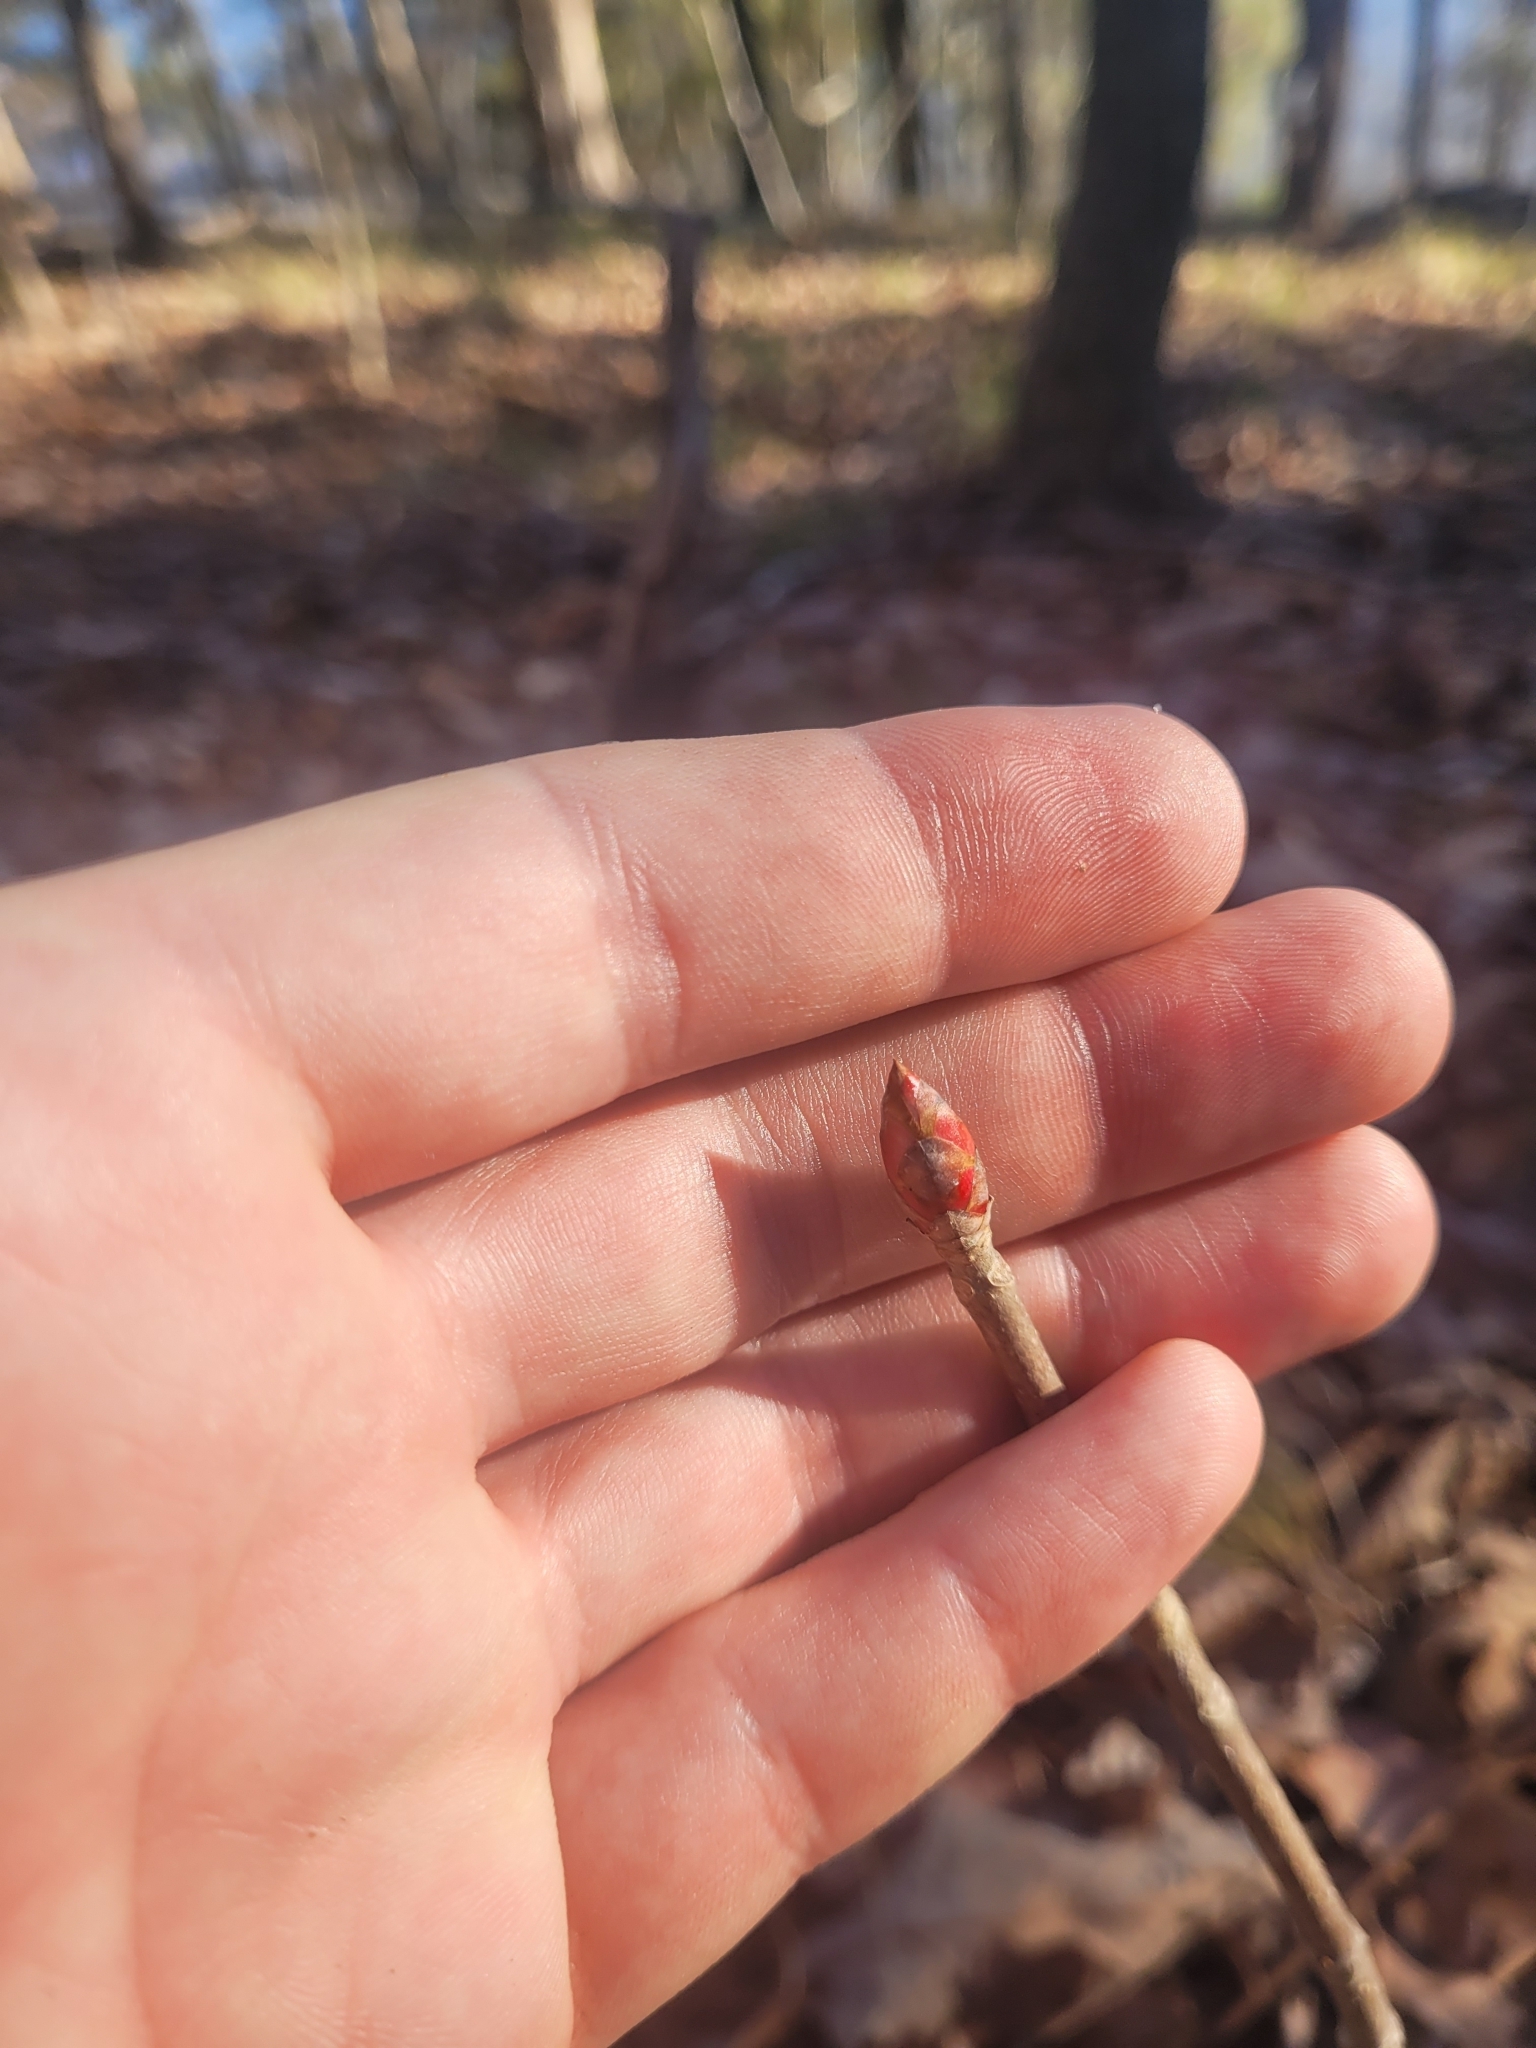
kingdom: Plantae
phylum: Tracheophyta
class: Magnoliopsida
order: Sapindales
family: Sapindaceae
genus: Aesculus
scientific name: Aesculus sylvatica
